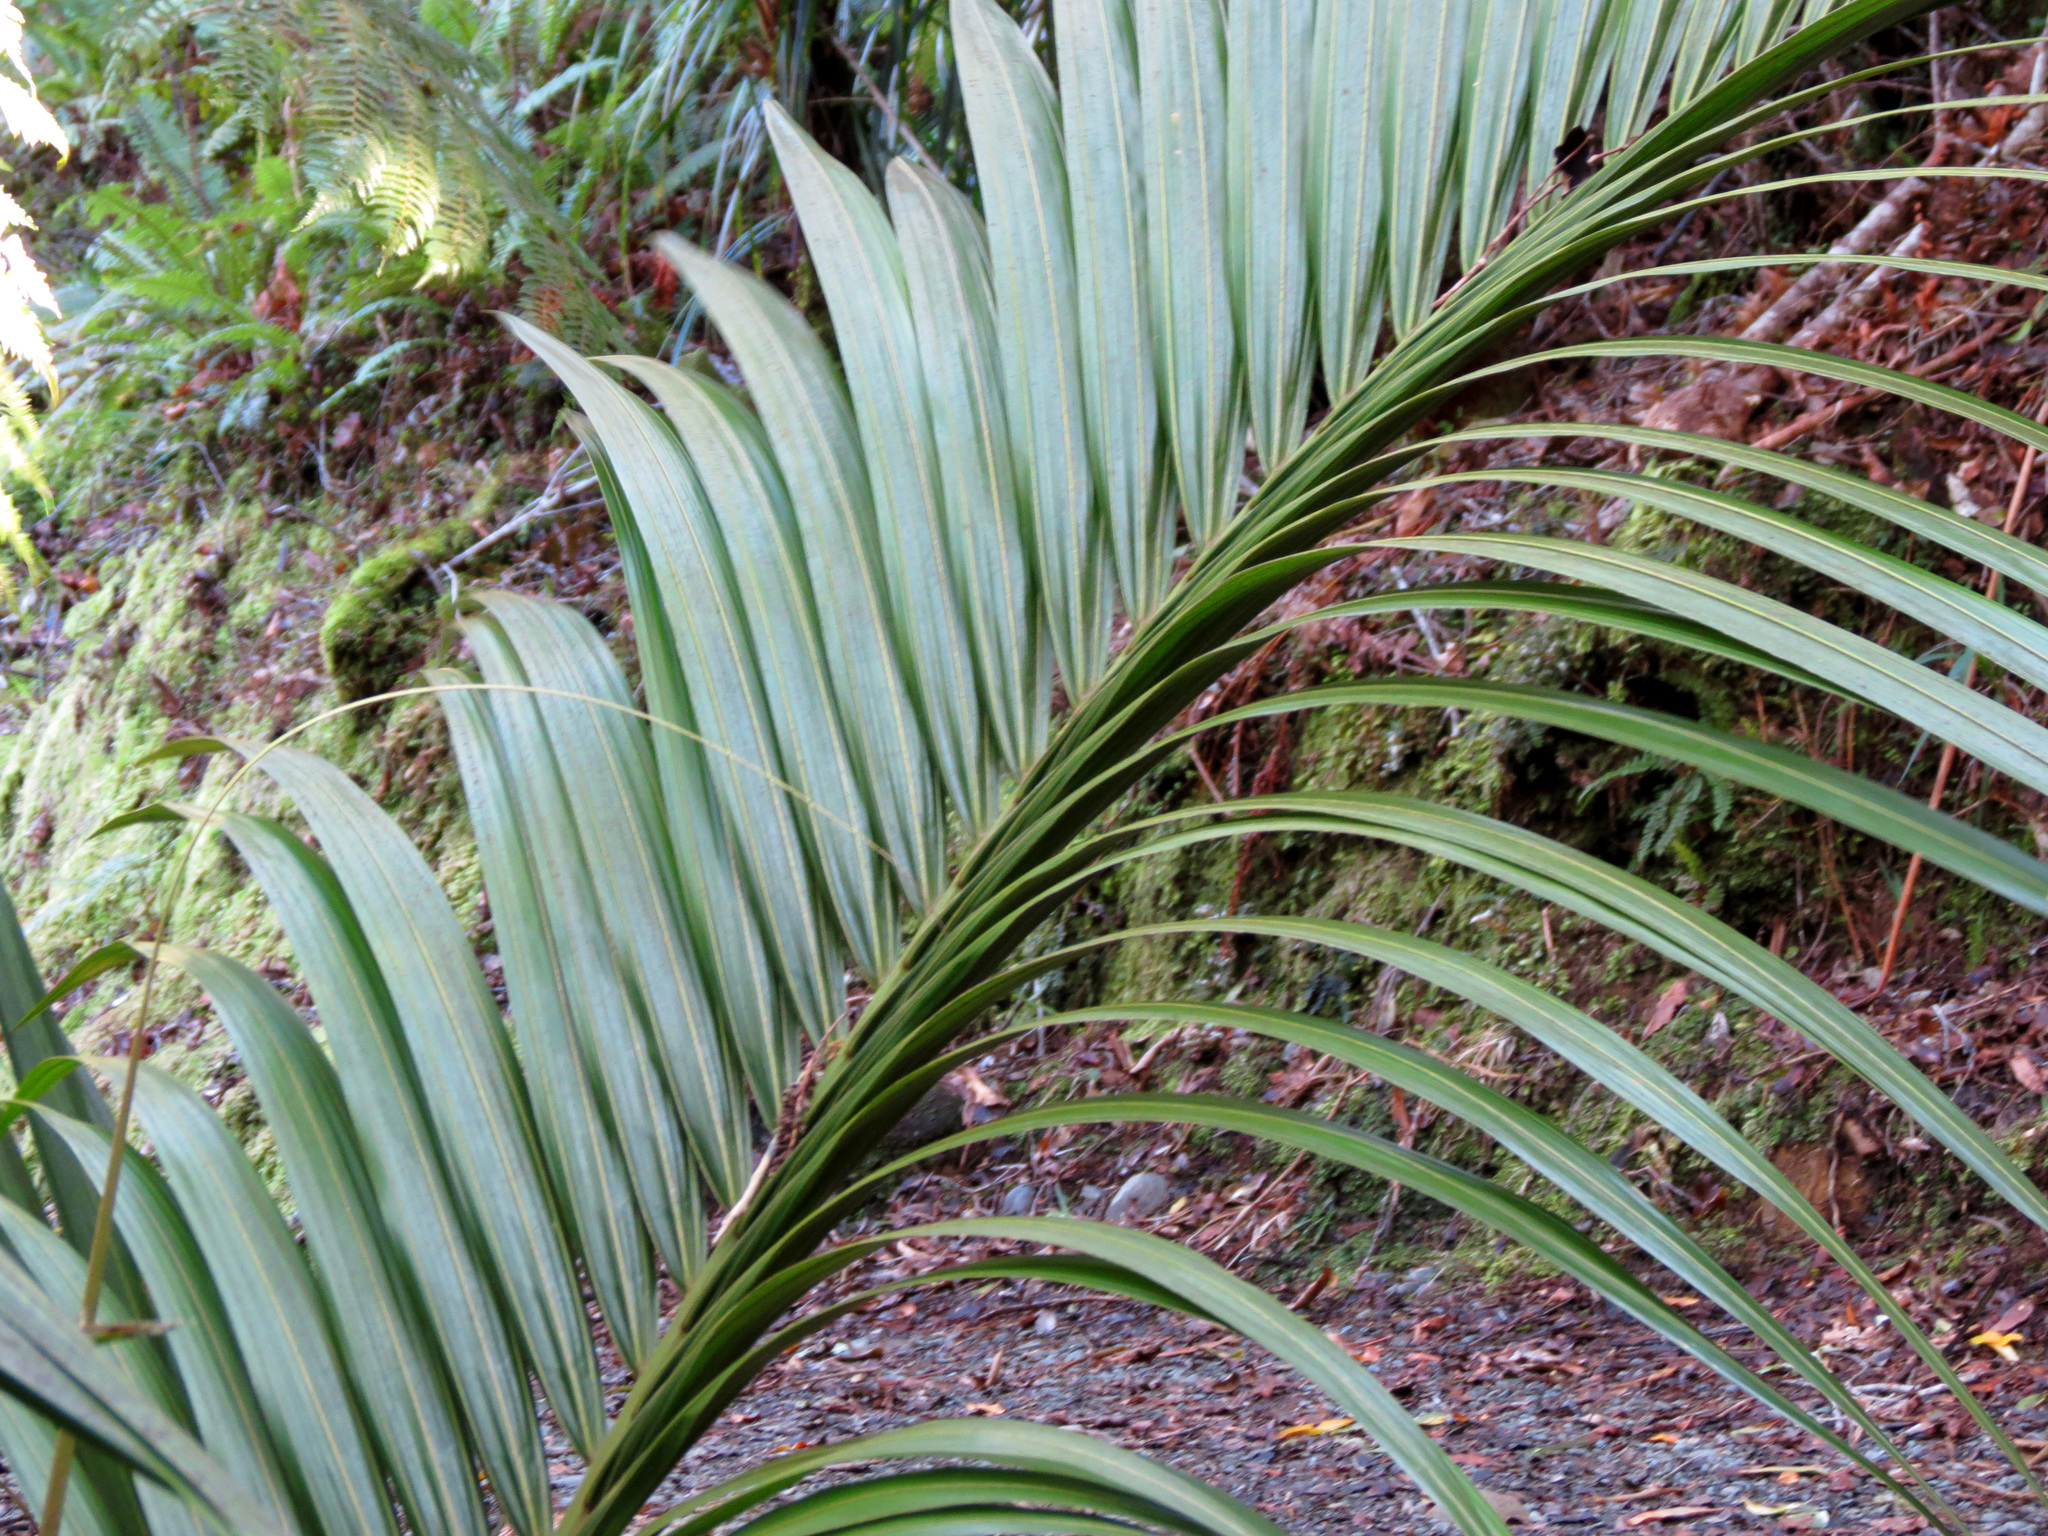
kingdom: Plantae
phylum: Tracheophyta
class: Liliopsida
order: Arecales
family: Arecaceae
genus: Rhopalostylis
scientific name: Rhopalostylis sapida
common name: Feather-duster palm
